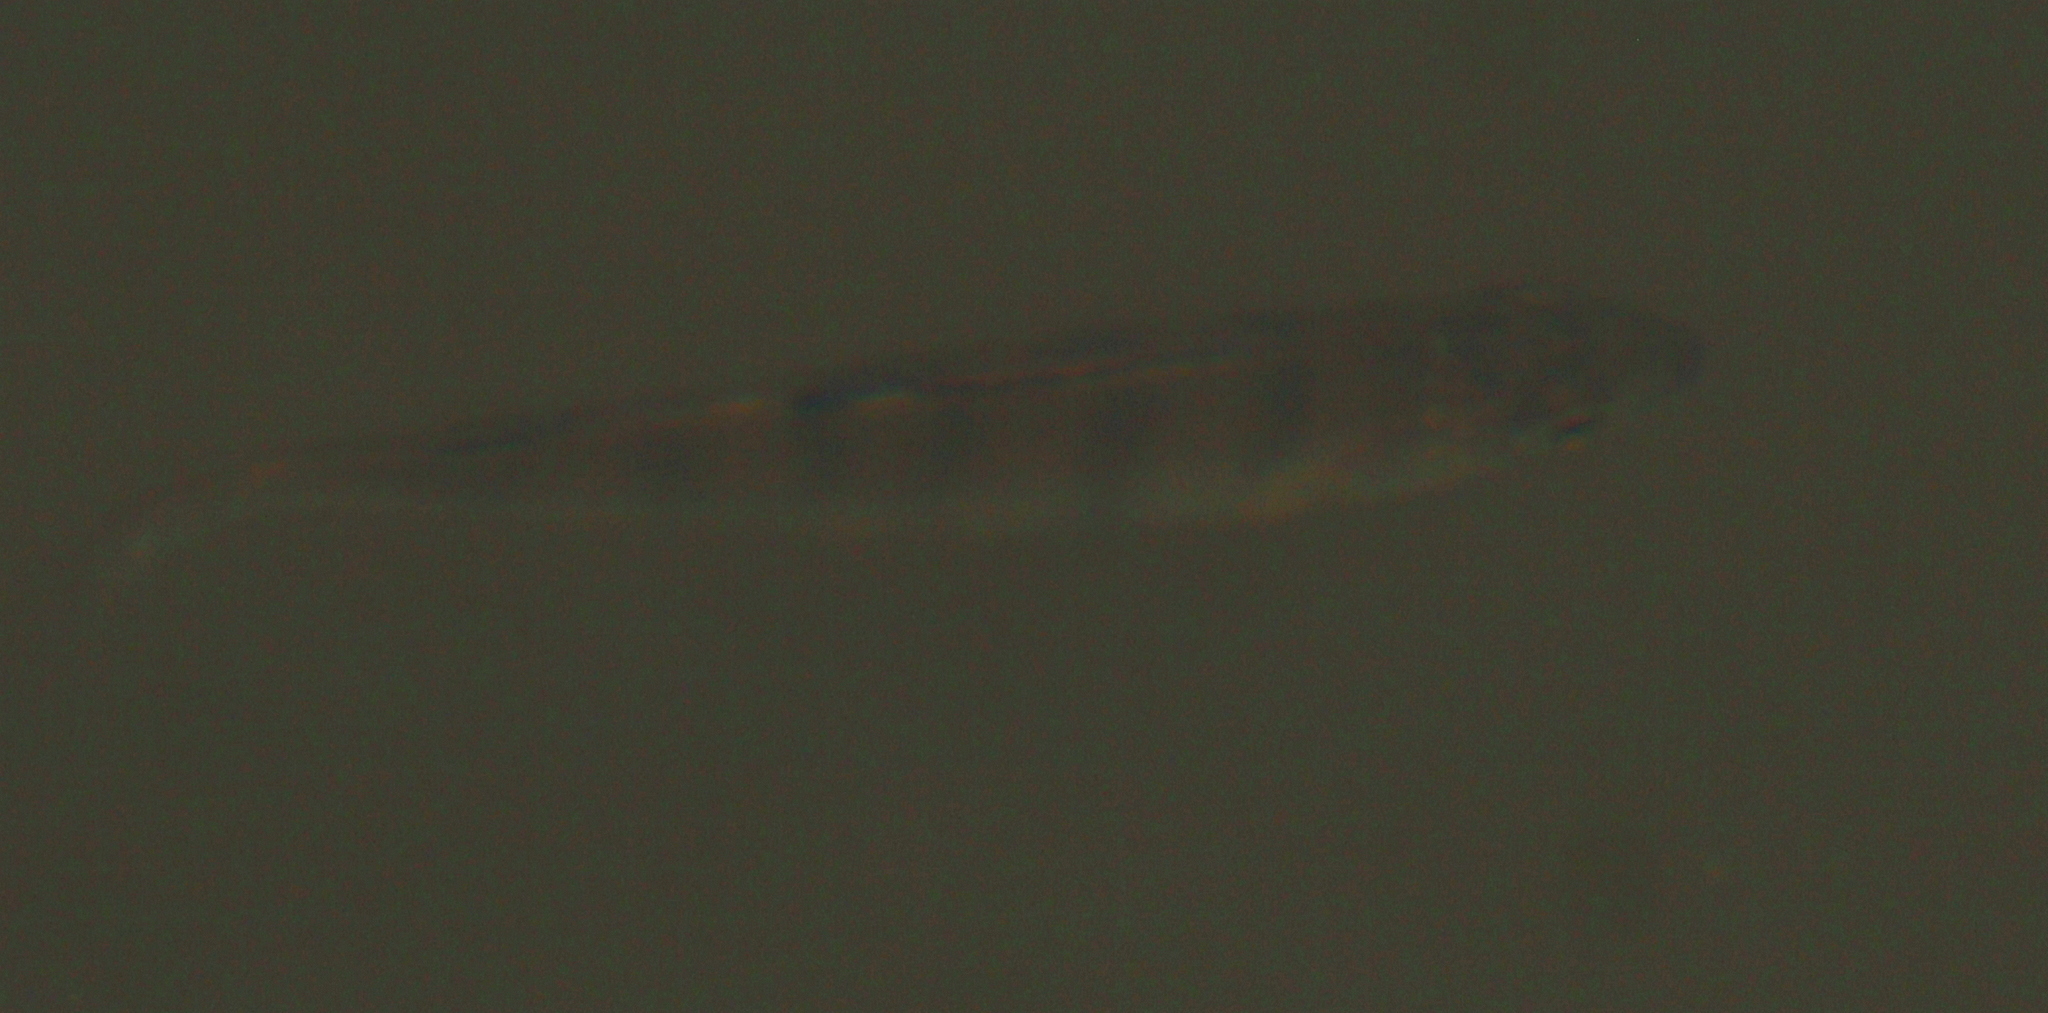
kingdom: Animalia
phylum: Chordata
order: Perciformes
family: Percidae
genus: Perca
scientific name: Perca fluviatilis
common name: Perch
